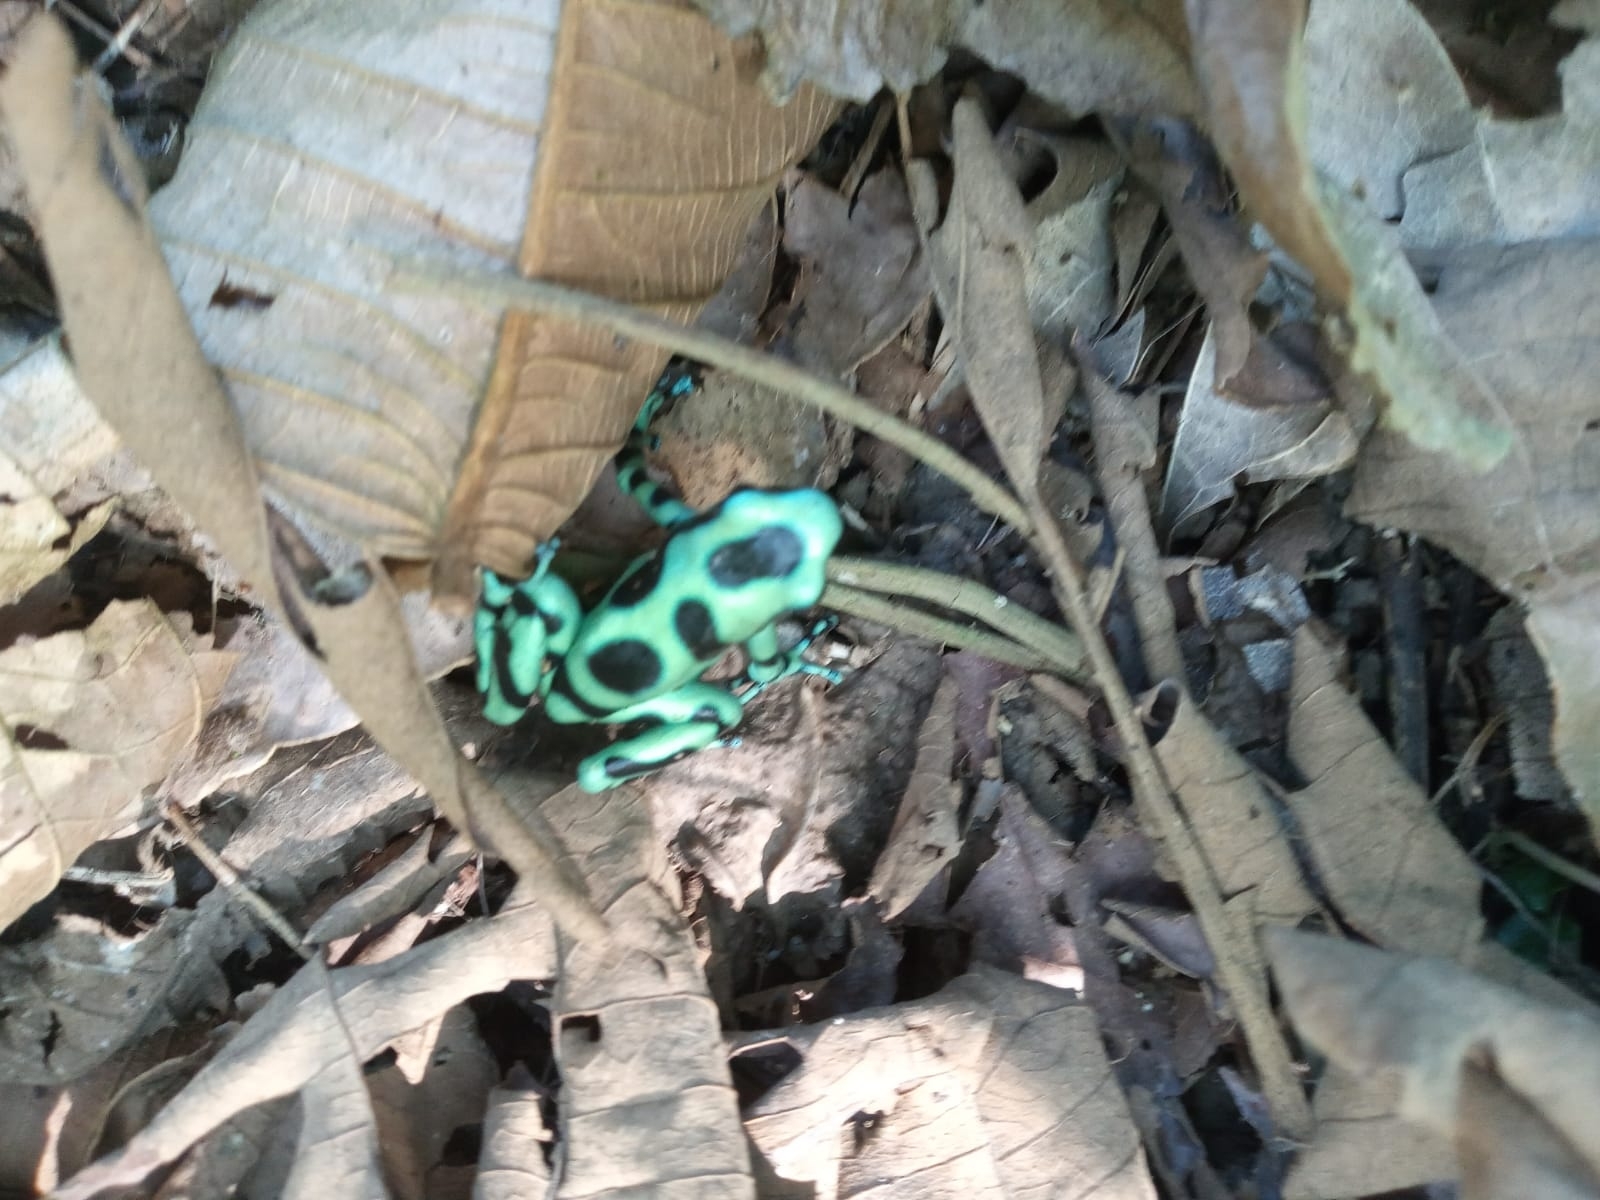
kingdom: Animalia
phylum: Chordata
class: Amphibia
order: Anura
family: Dendrobatidae
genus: Dendrobates
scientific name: Dendrobates auratus
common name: Green and black poison dart frog
